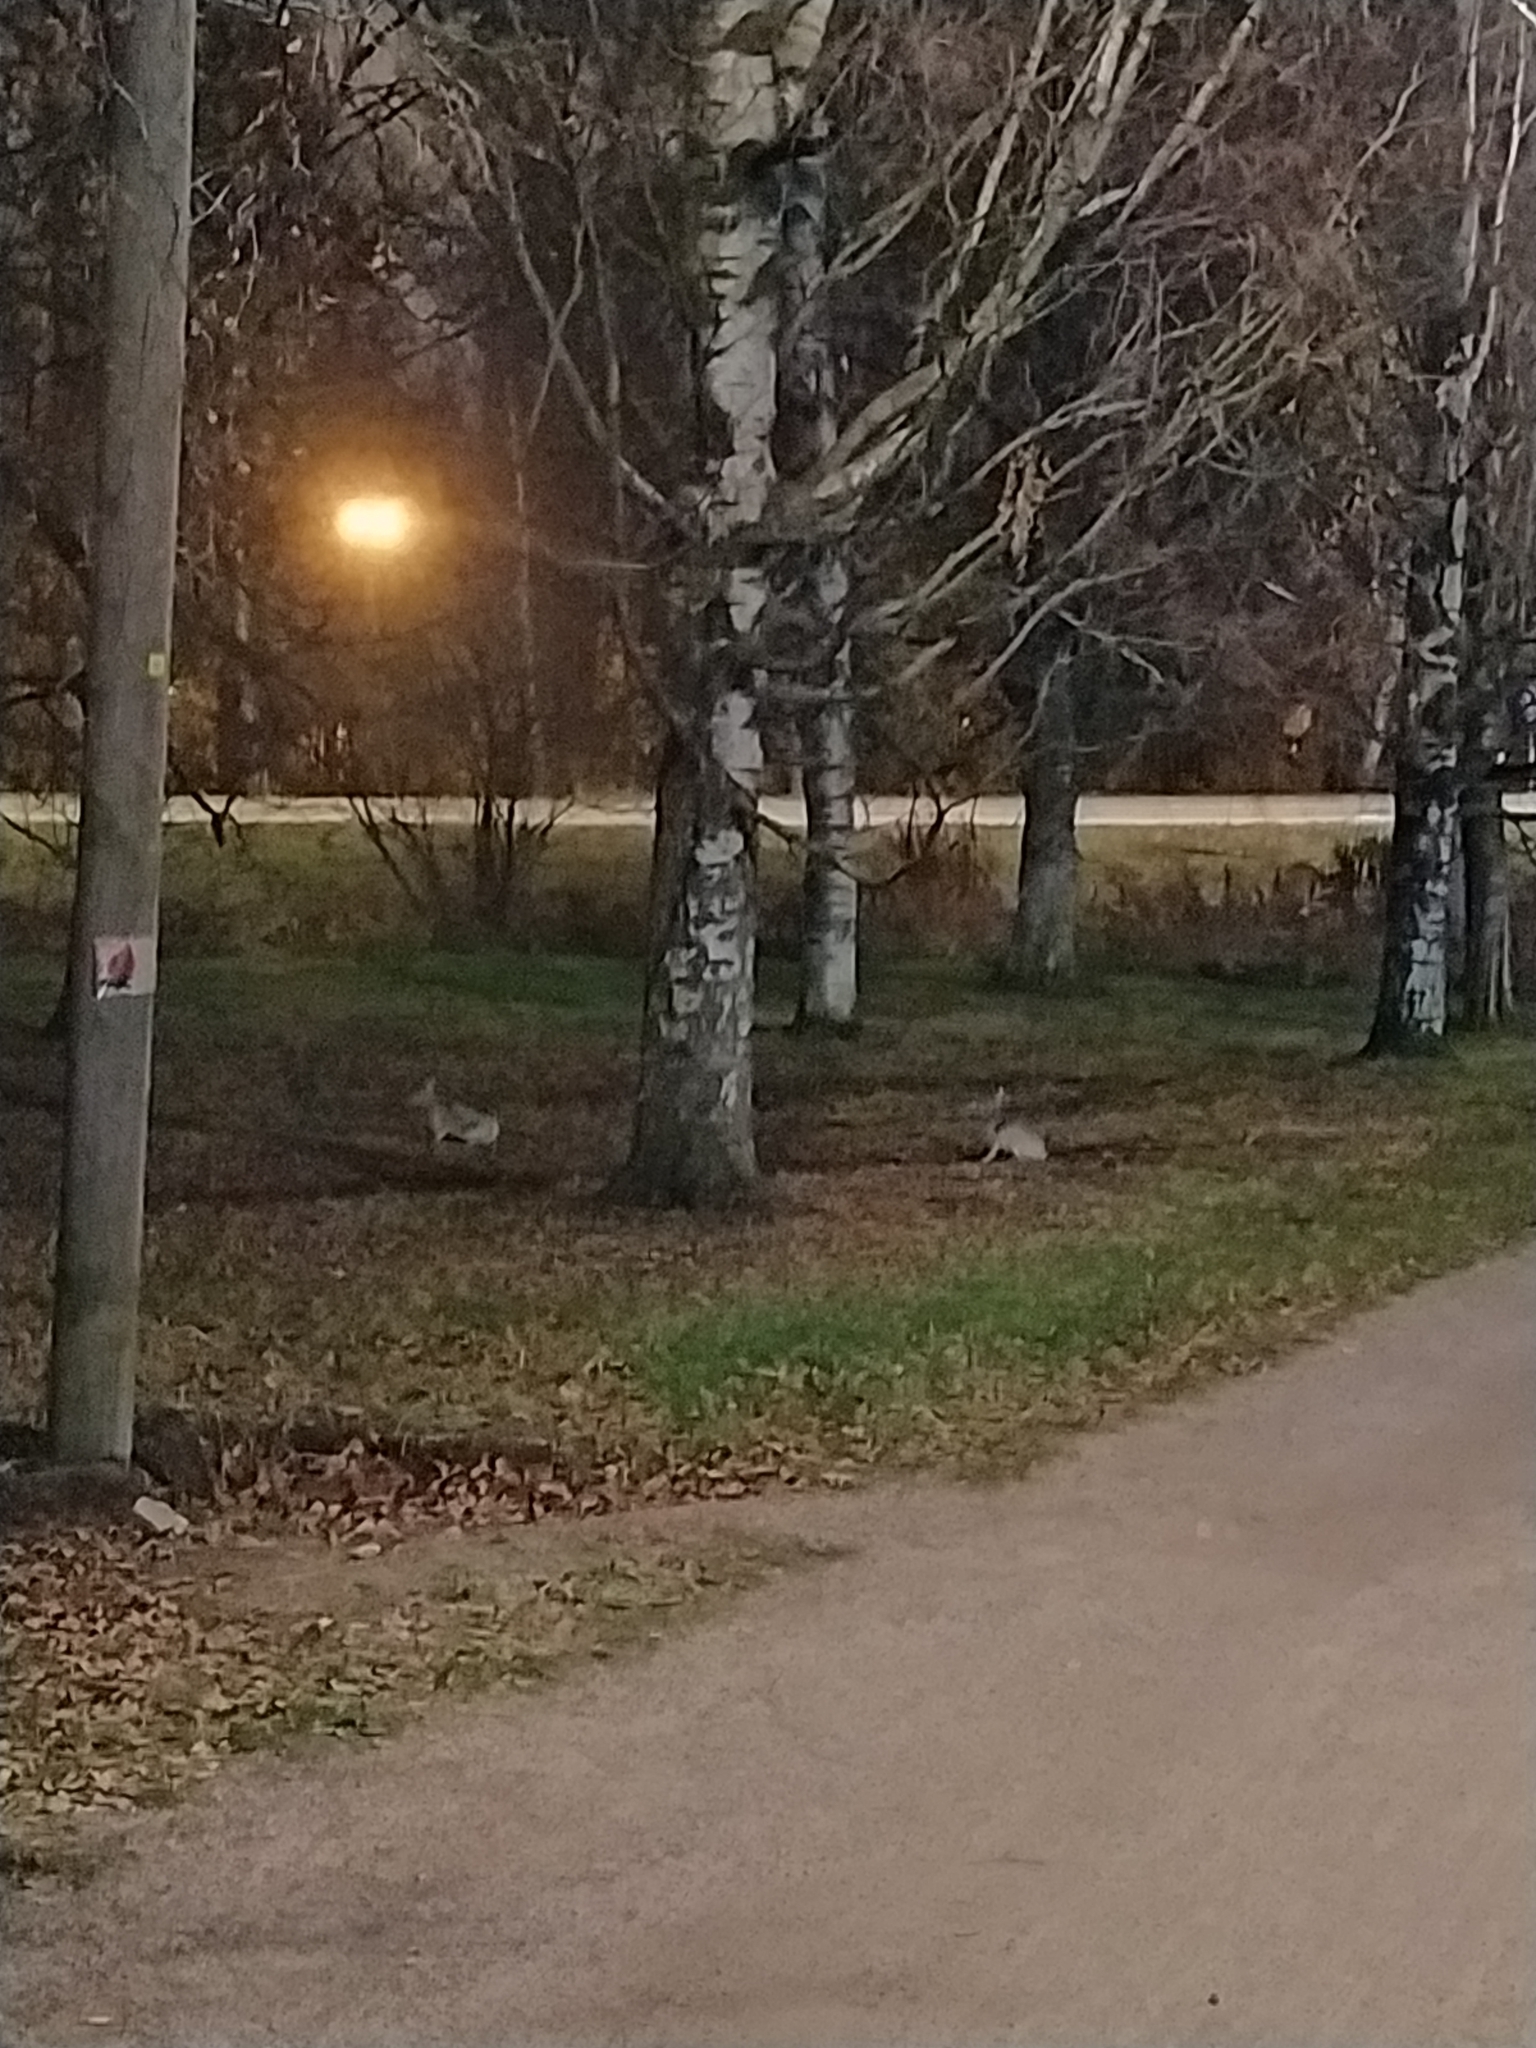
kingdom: Animalia
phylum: Chordata
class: Mammalia
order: Lagomorpha
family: Leporidae
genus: Lepus
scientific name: Lepus europaeus
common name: European hare
